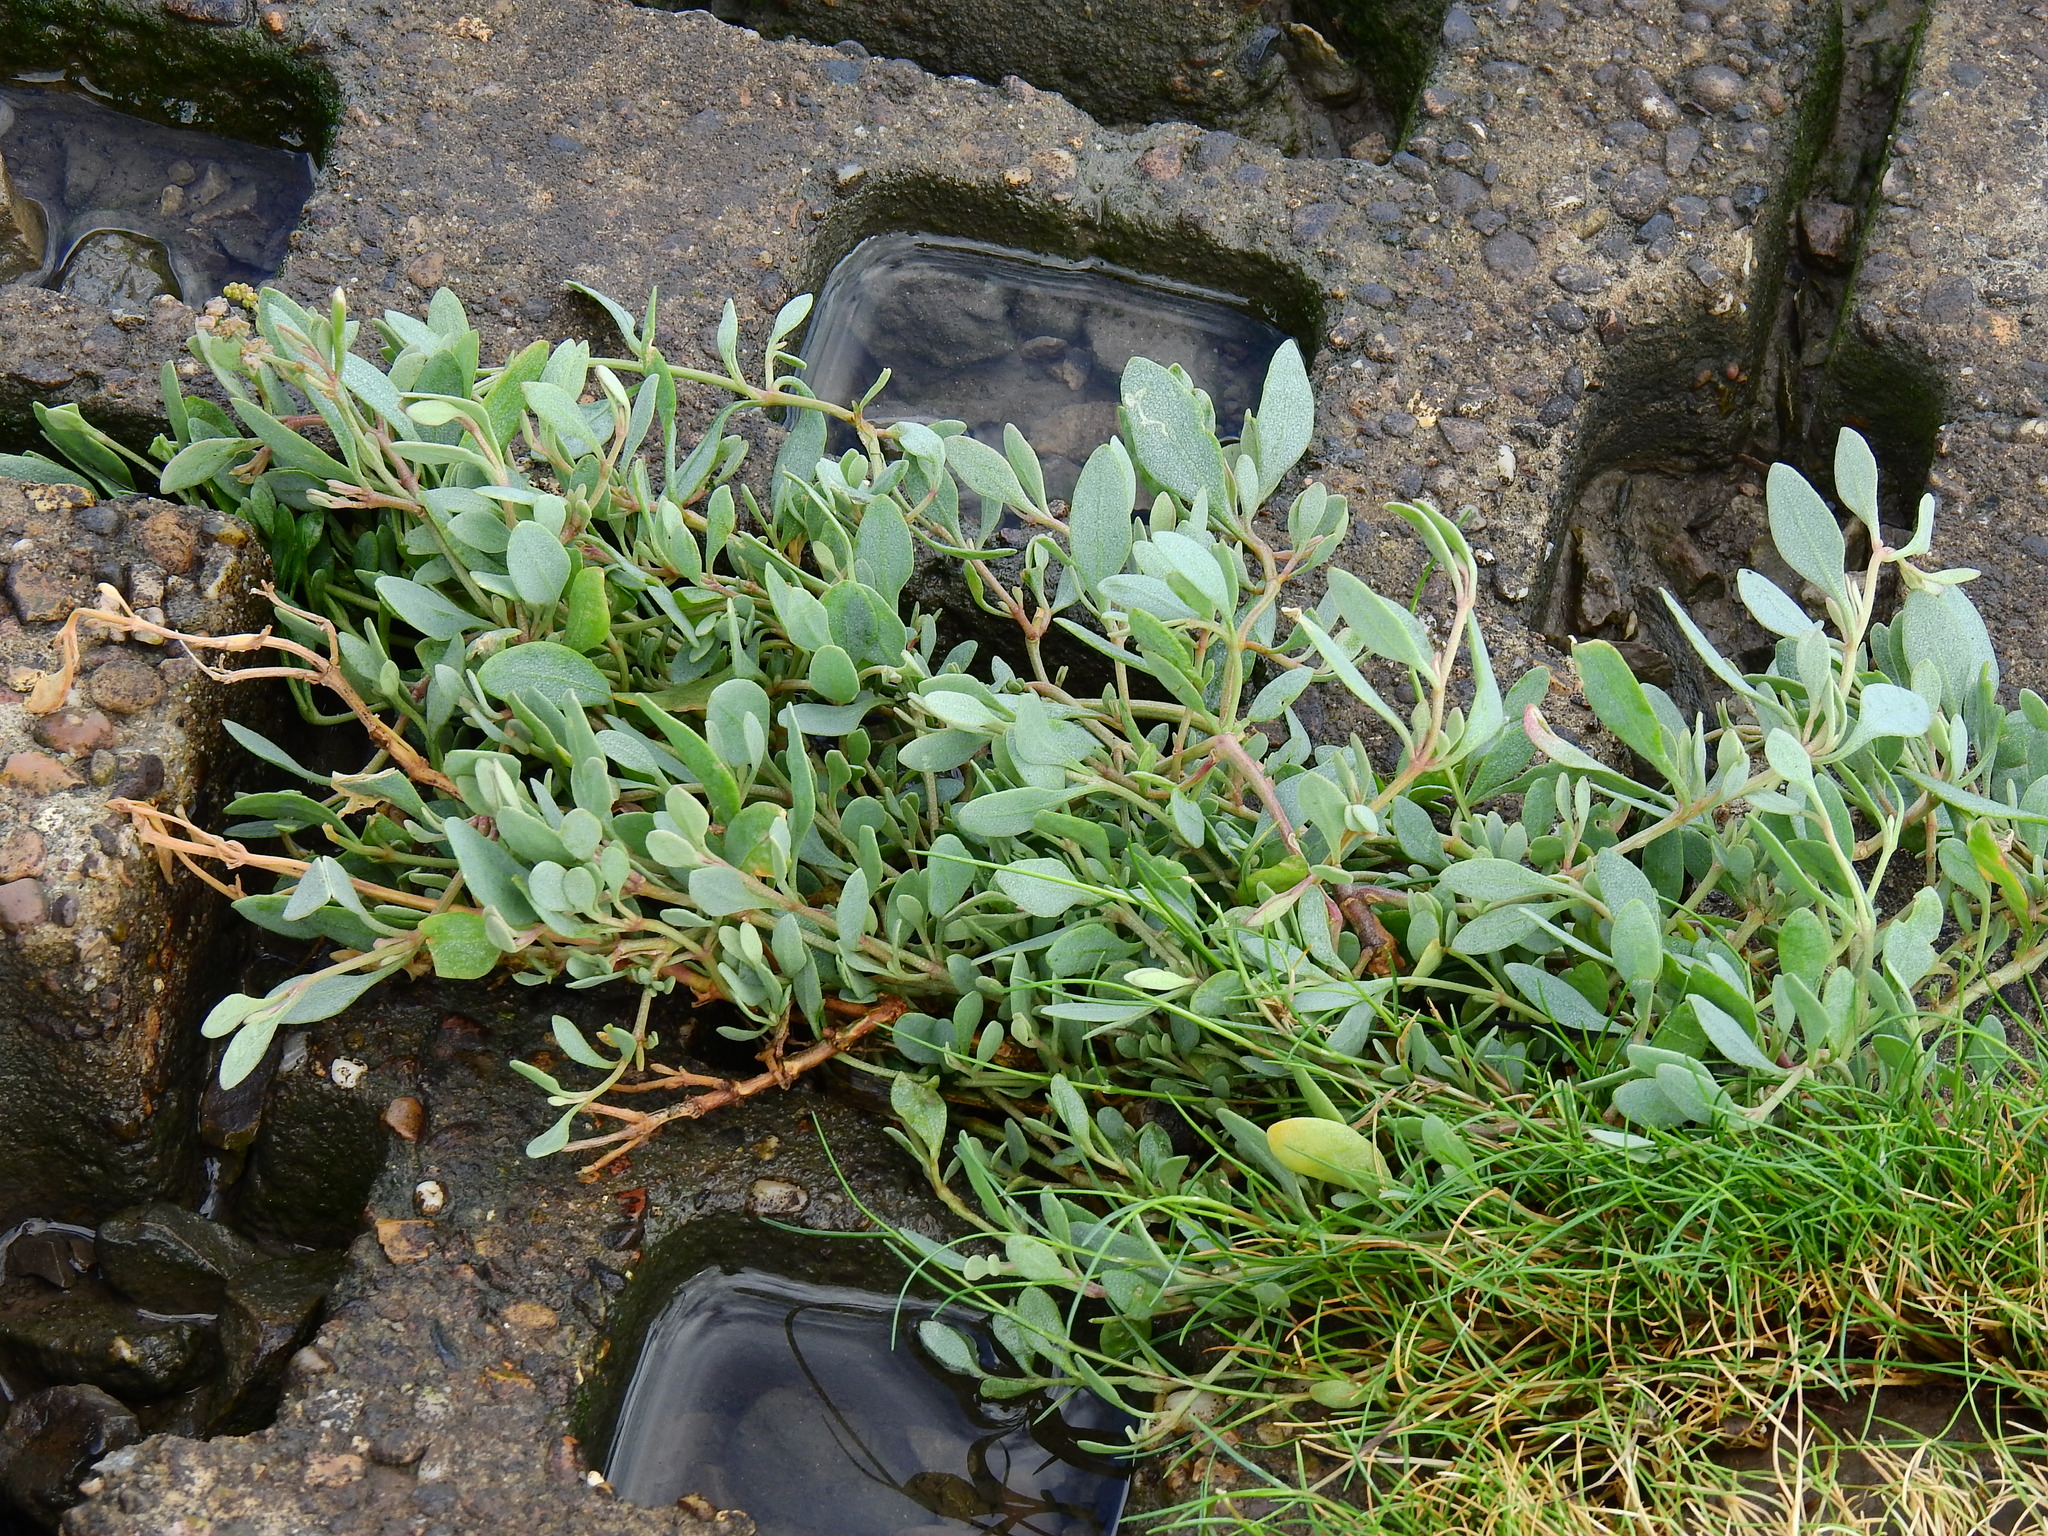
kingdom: Plantae
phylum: Tracheophyta
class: Magnoliopsida
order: Caryophyllales
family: Amaranthaceae
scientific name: Amaranthaceae
